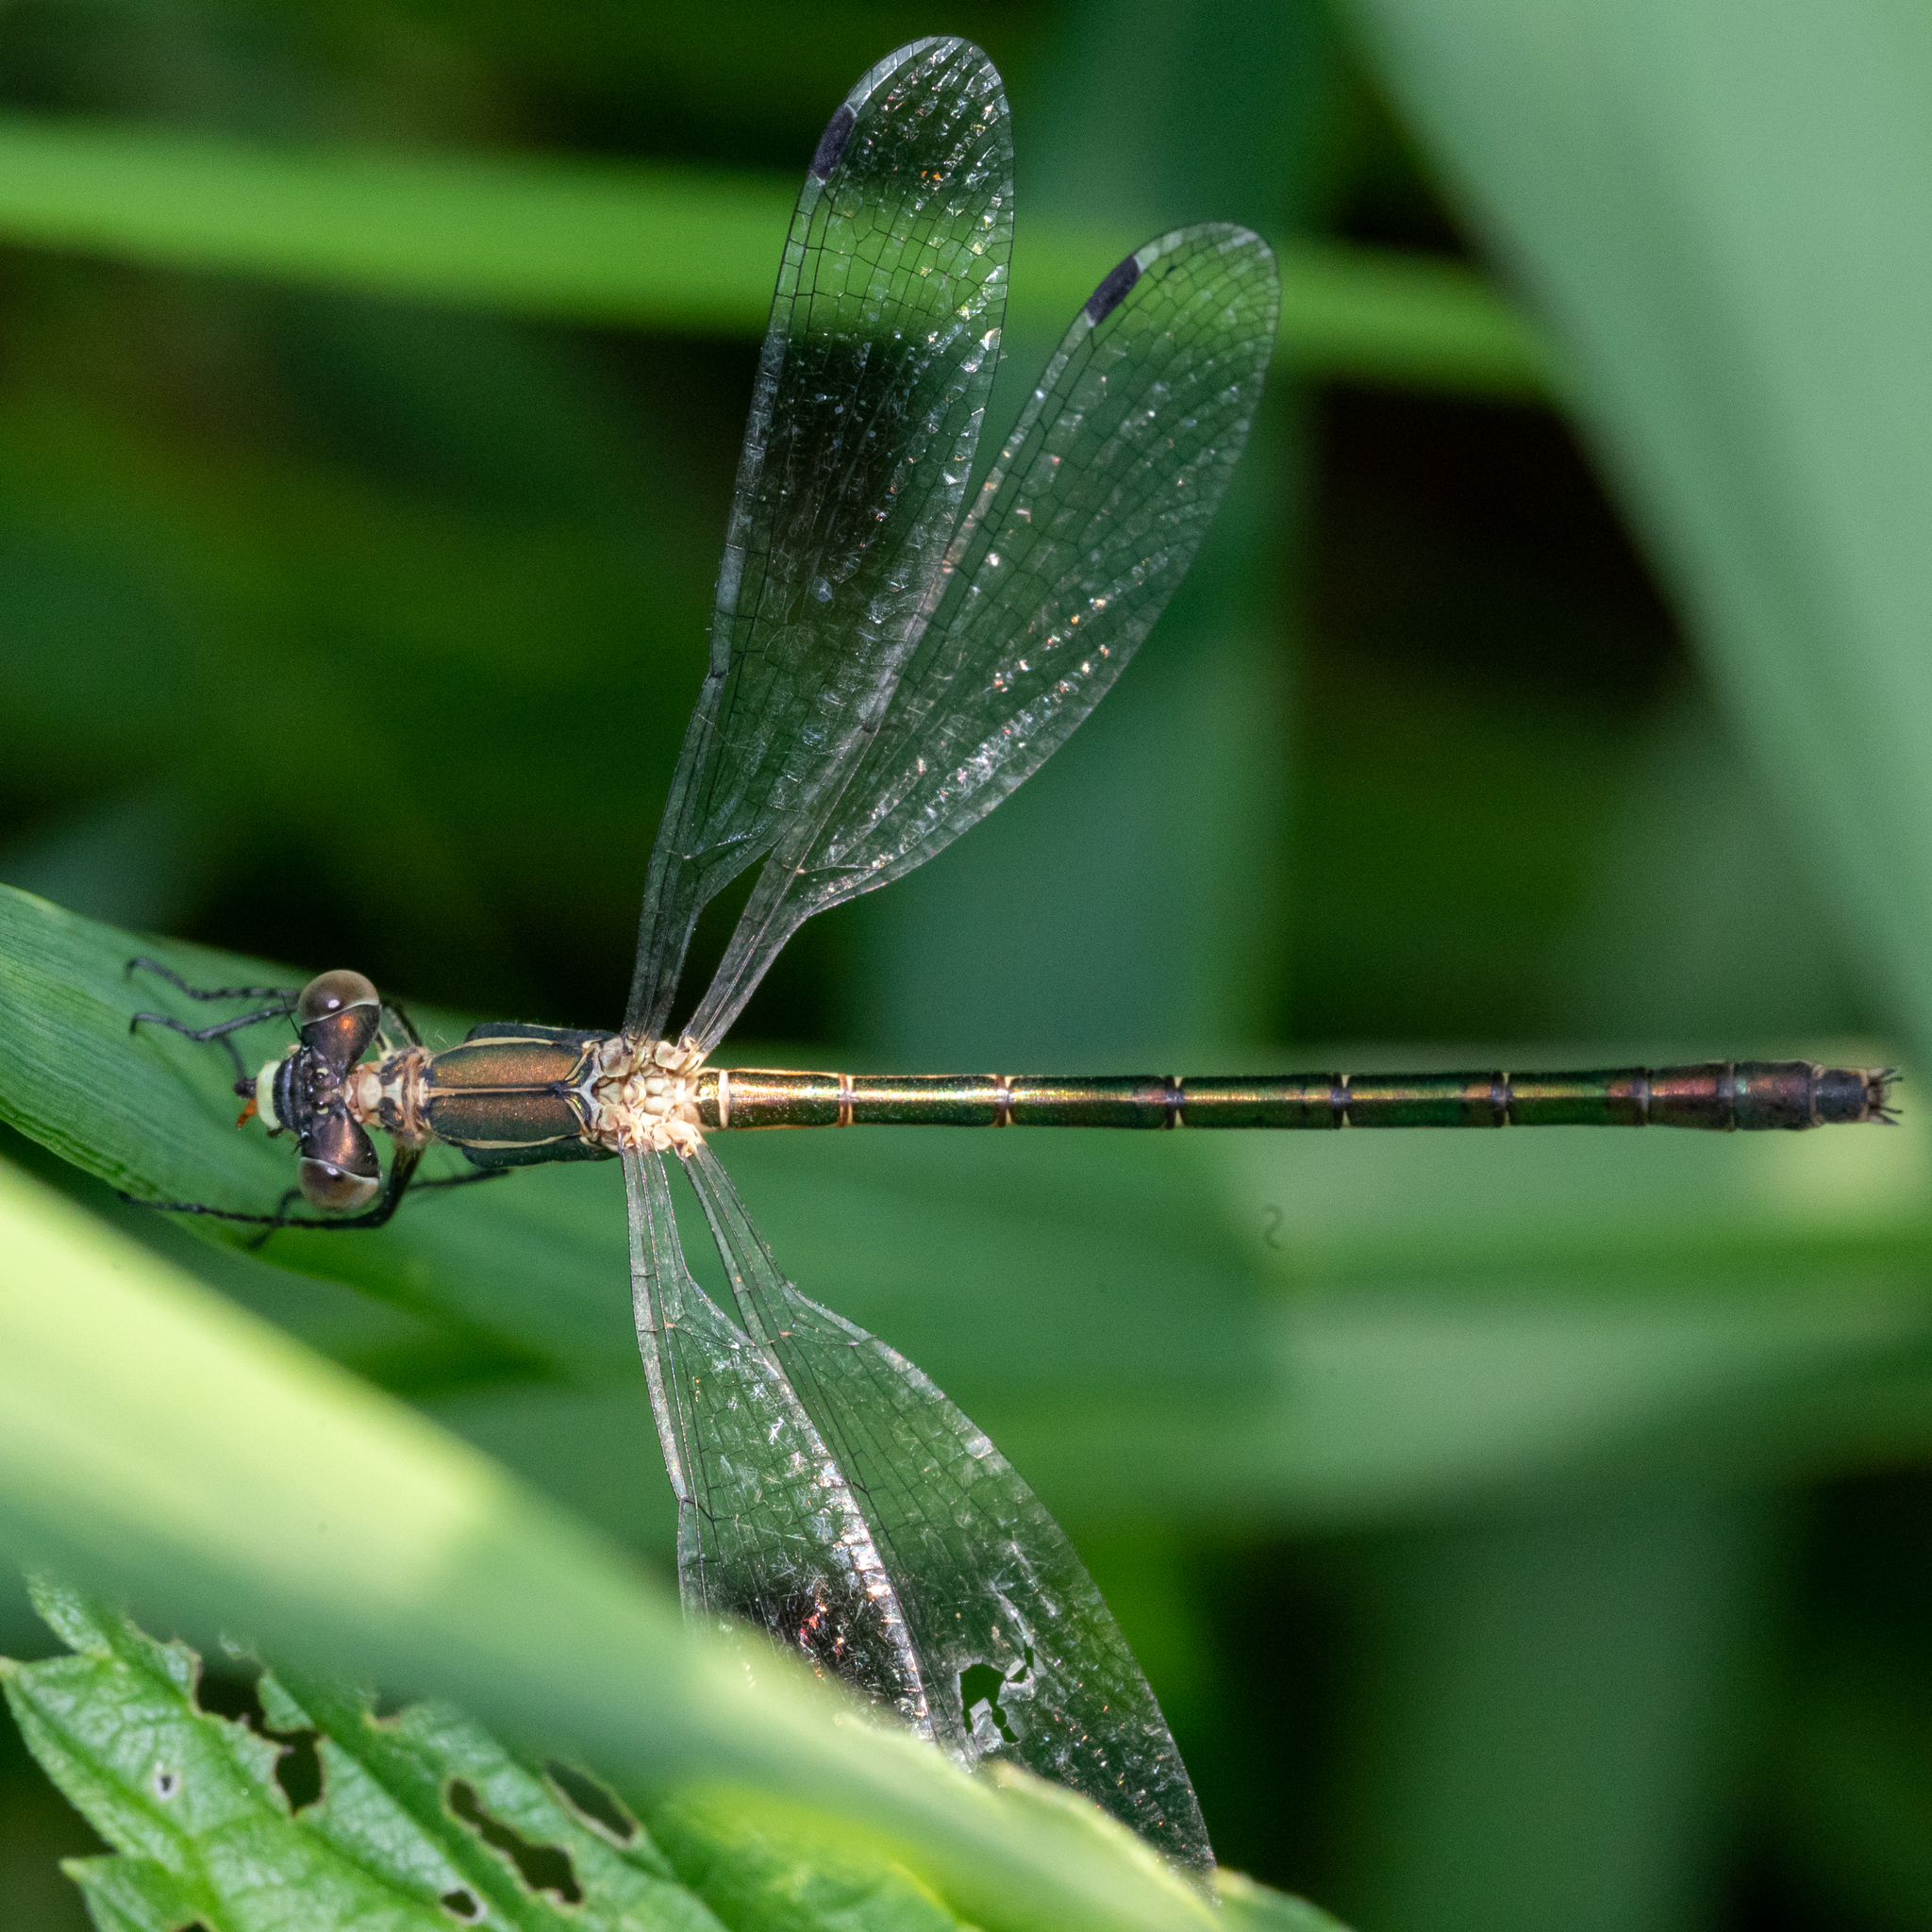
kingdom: Animalia
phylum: Arthropoda
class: Insecta
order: Odonata
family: Lestidae
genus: Lestes
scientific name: Lestes dryas
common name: Scarce emerald damselfly
